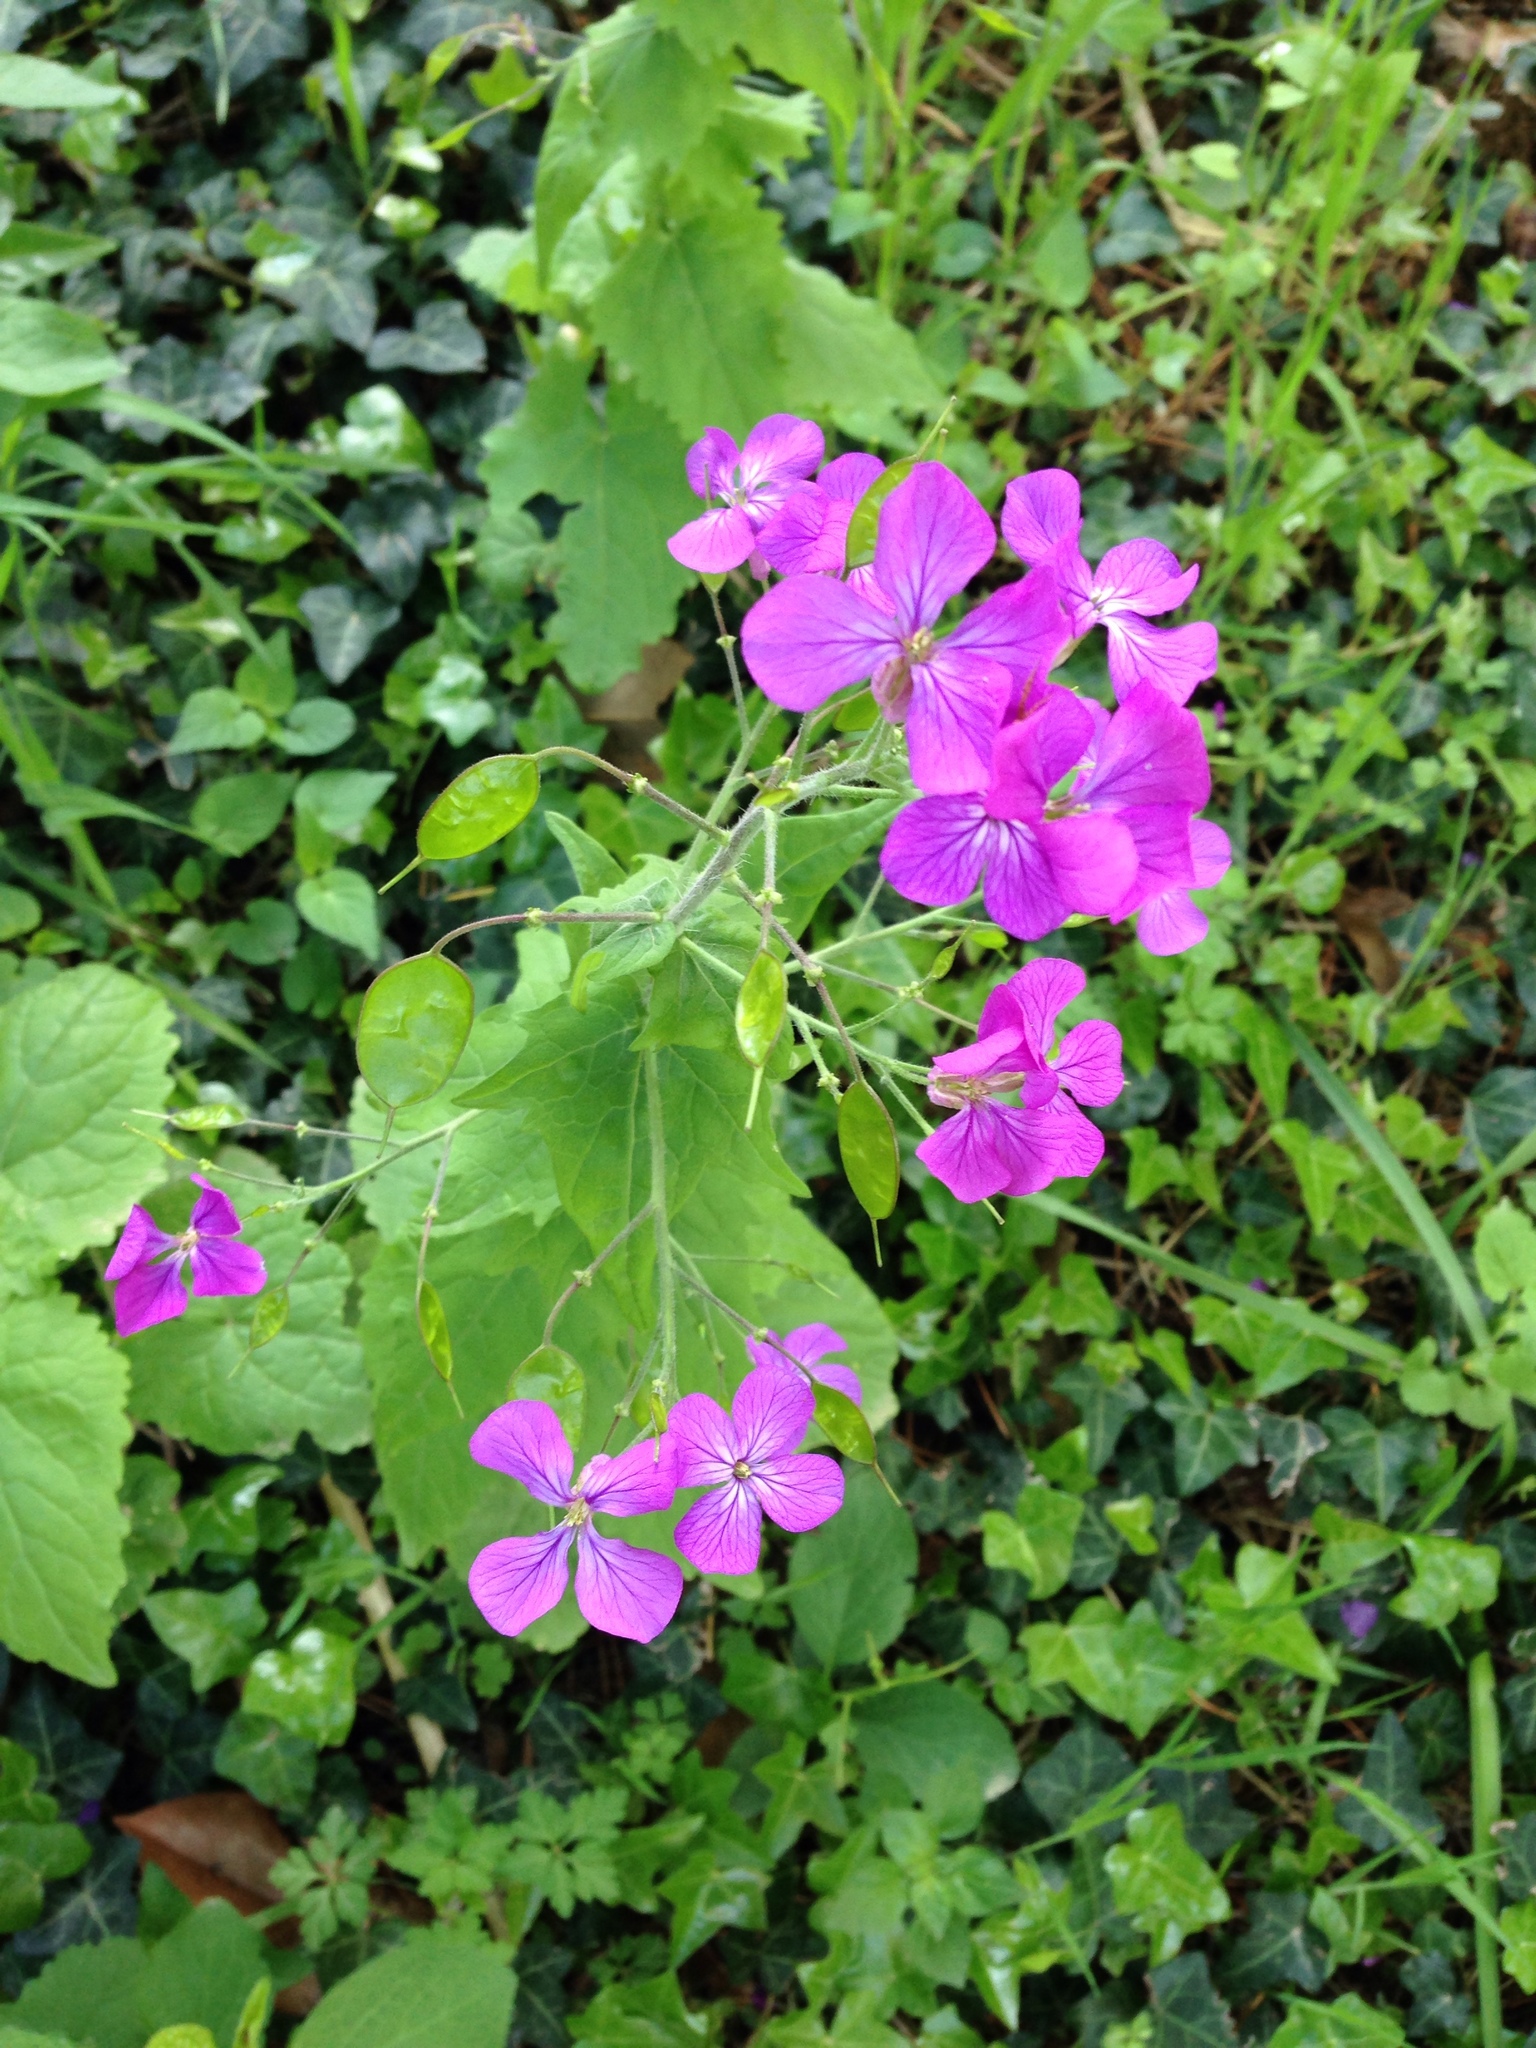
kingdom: Plantae
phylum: Tracheophyta
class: Magnoliopsida
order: Brassicales
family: Brassicaceae
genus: Lunaria
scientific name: Lunaria annua
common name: Honesty
